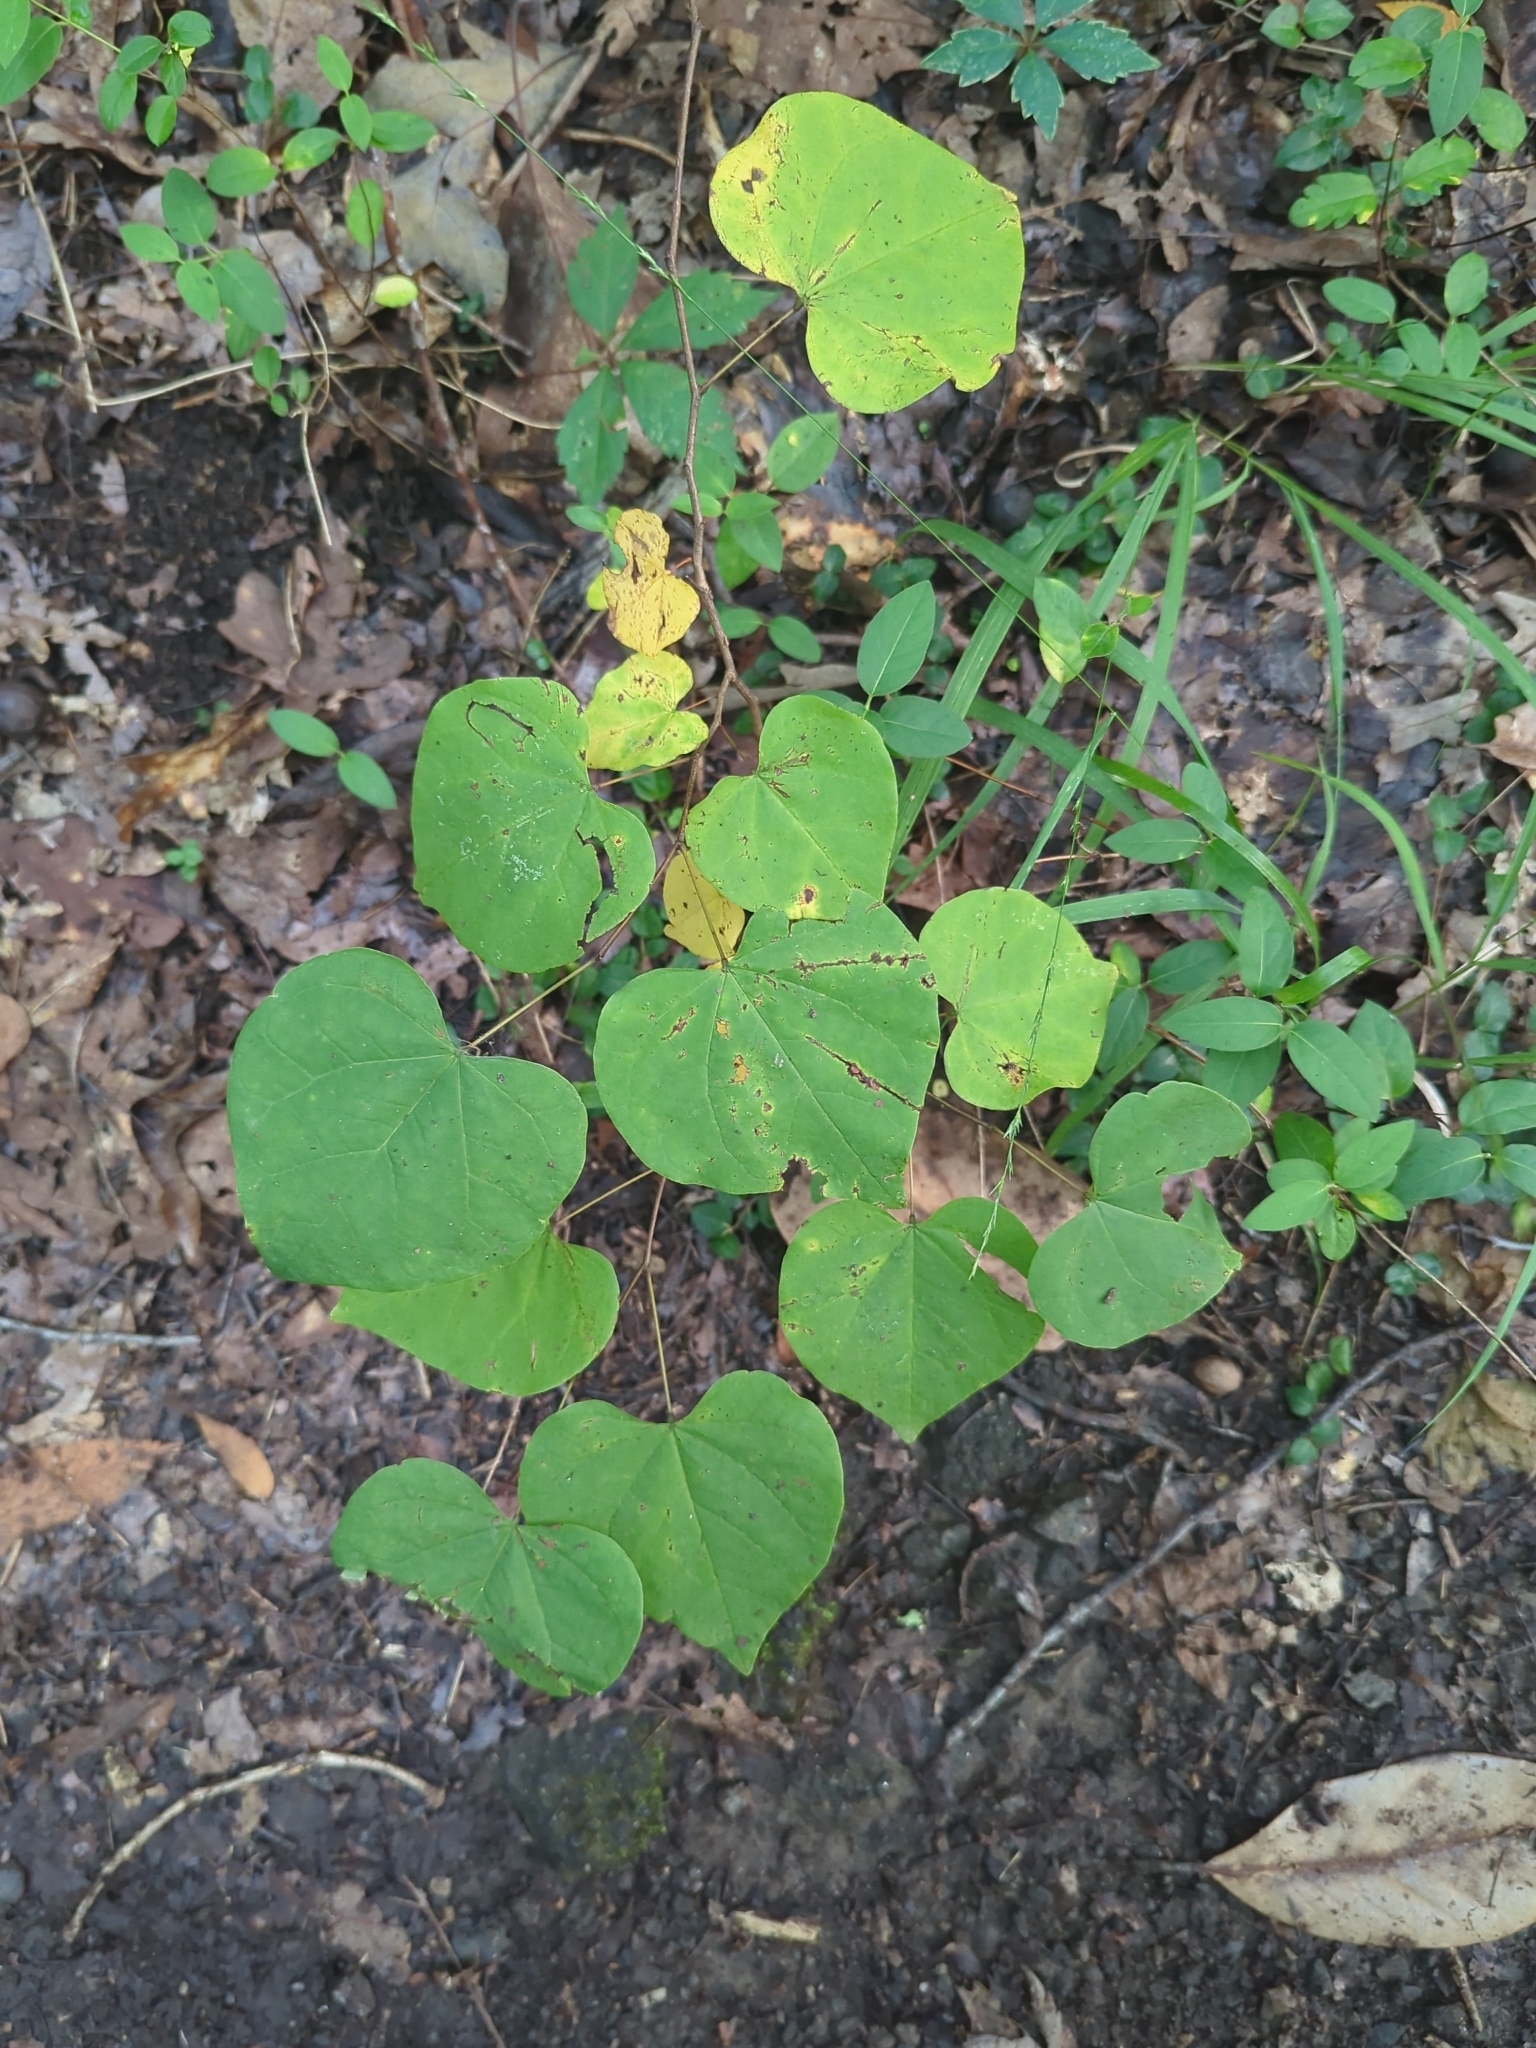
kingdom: Plantae
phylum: Tracheophyta
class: Magnoliopsida
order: Fabales
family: Fabaceae
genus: Cercis
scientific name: Cercis canadensis
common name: Eastern redbud
